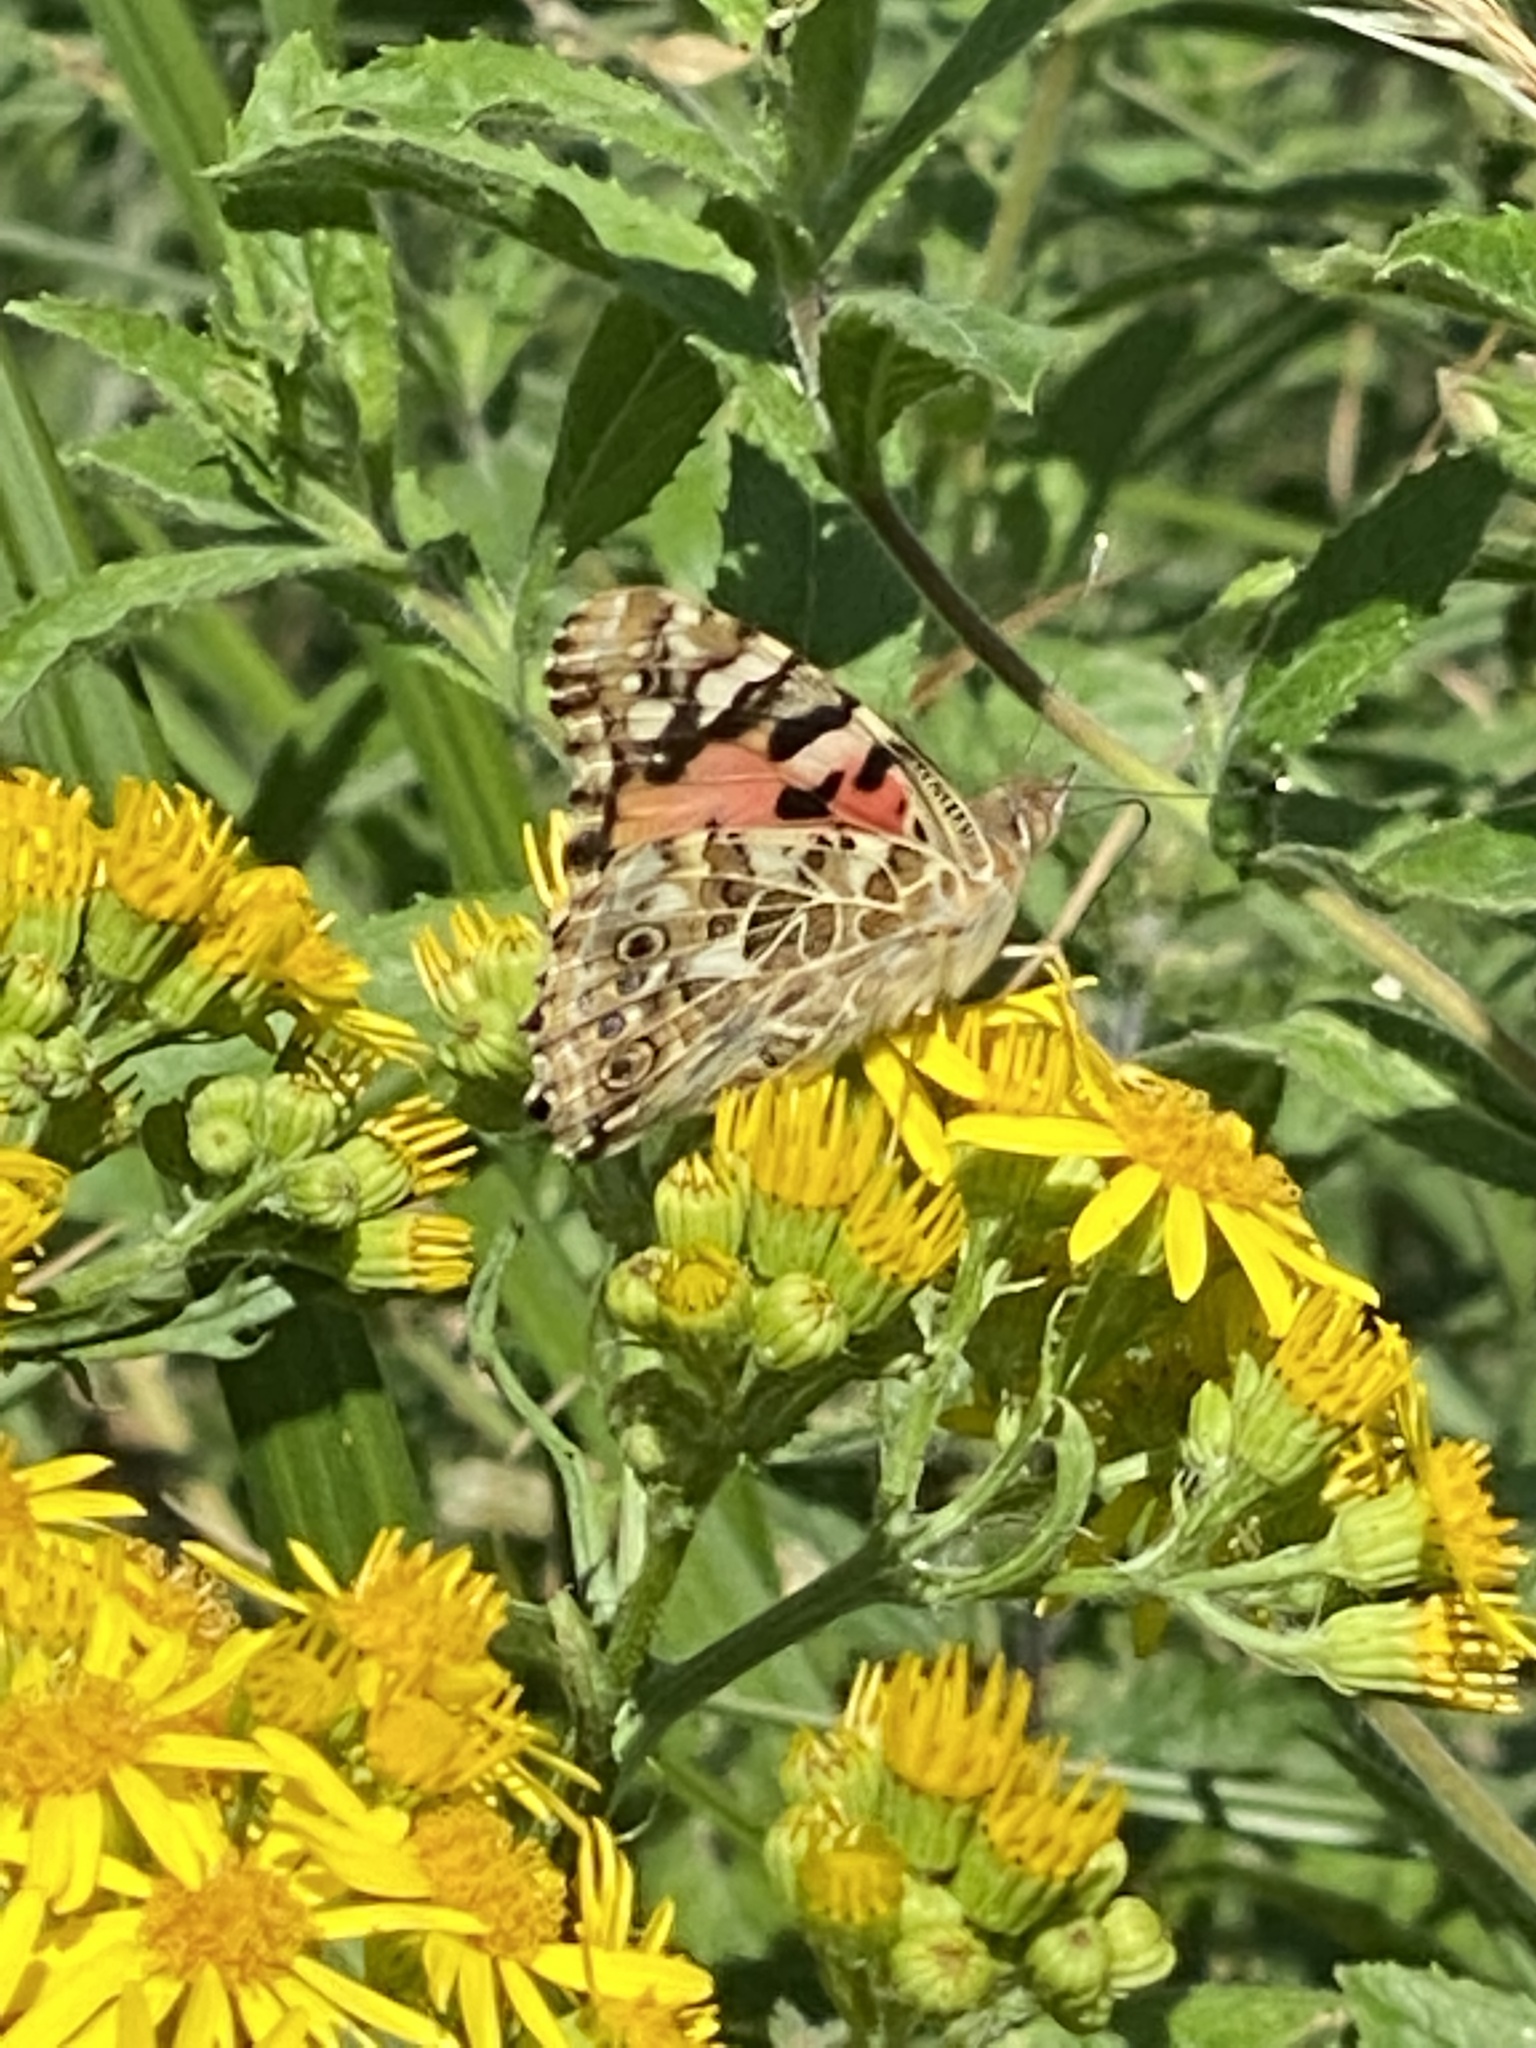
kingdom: Animalia
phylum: Arthropoda
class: Insecta
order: Lepidoptera
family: Nymphalidae
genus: Vanessa
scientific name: Vanessa cardui
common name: Painted lady
